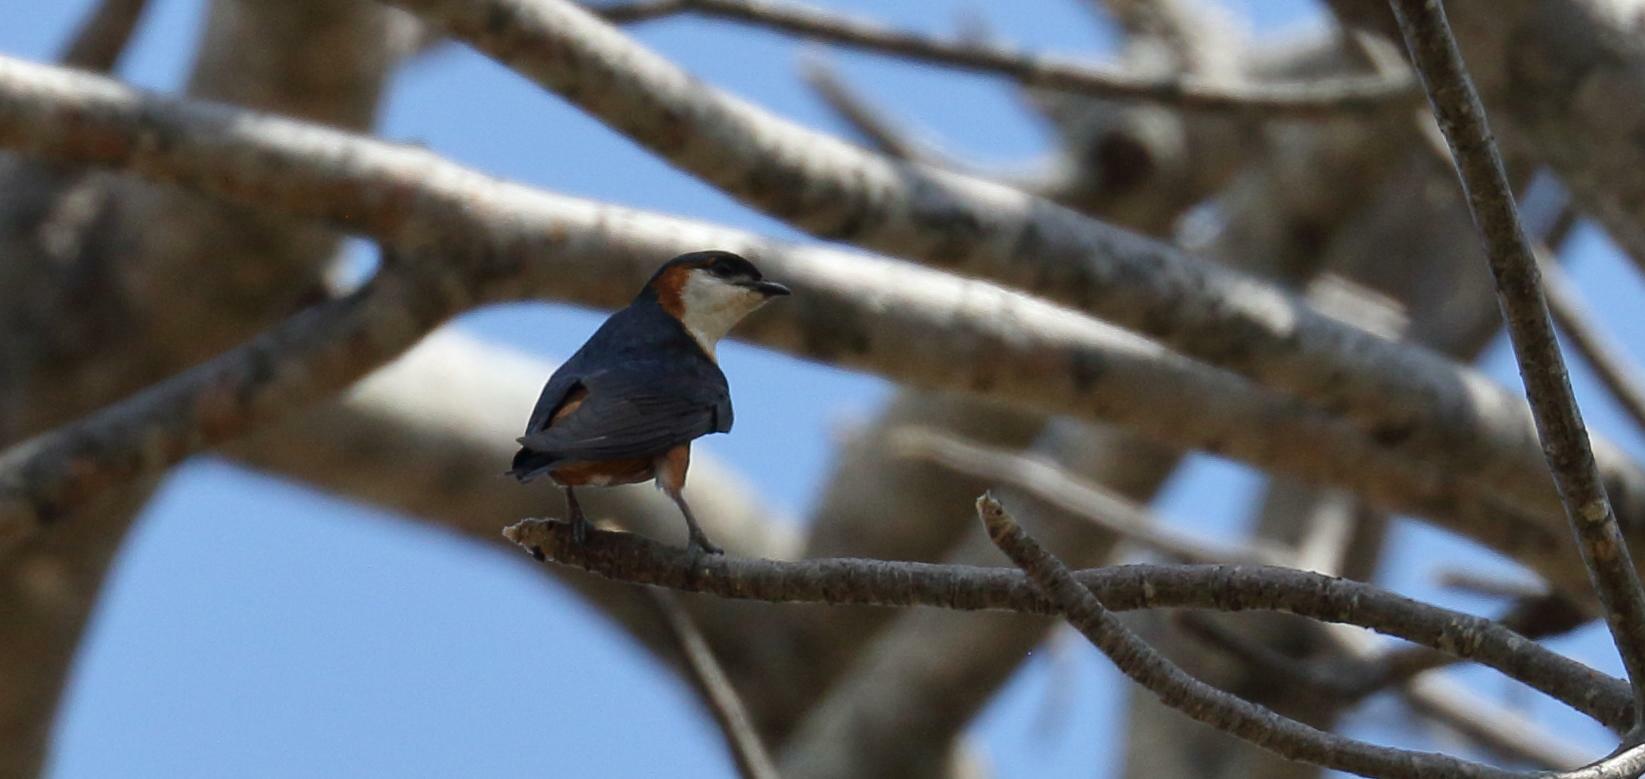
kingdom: Animalia
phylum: Chordata
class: Aves
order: Passeriformes
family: Hirundinidae
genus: Cecropis
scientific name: Cecropis senegalensis
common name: Mosque swallow
